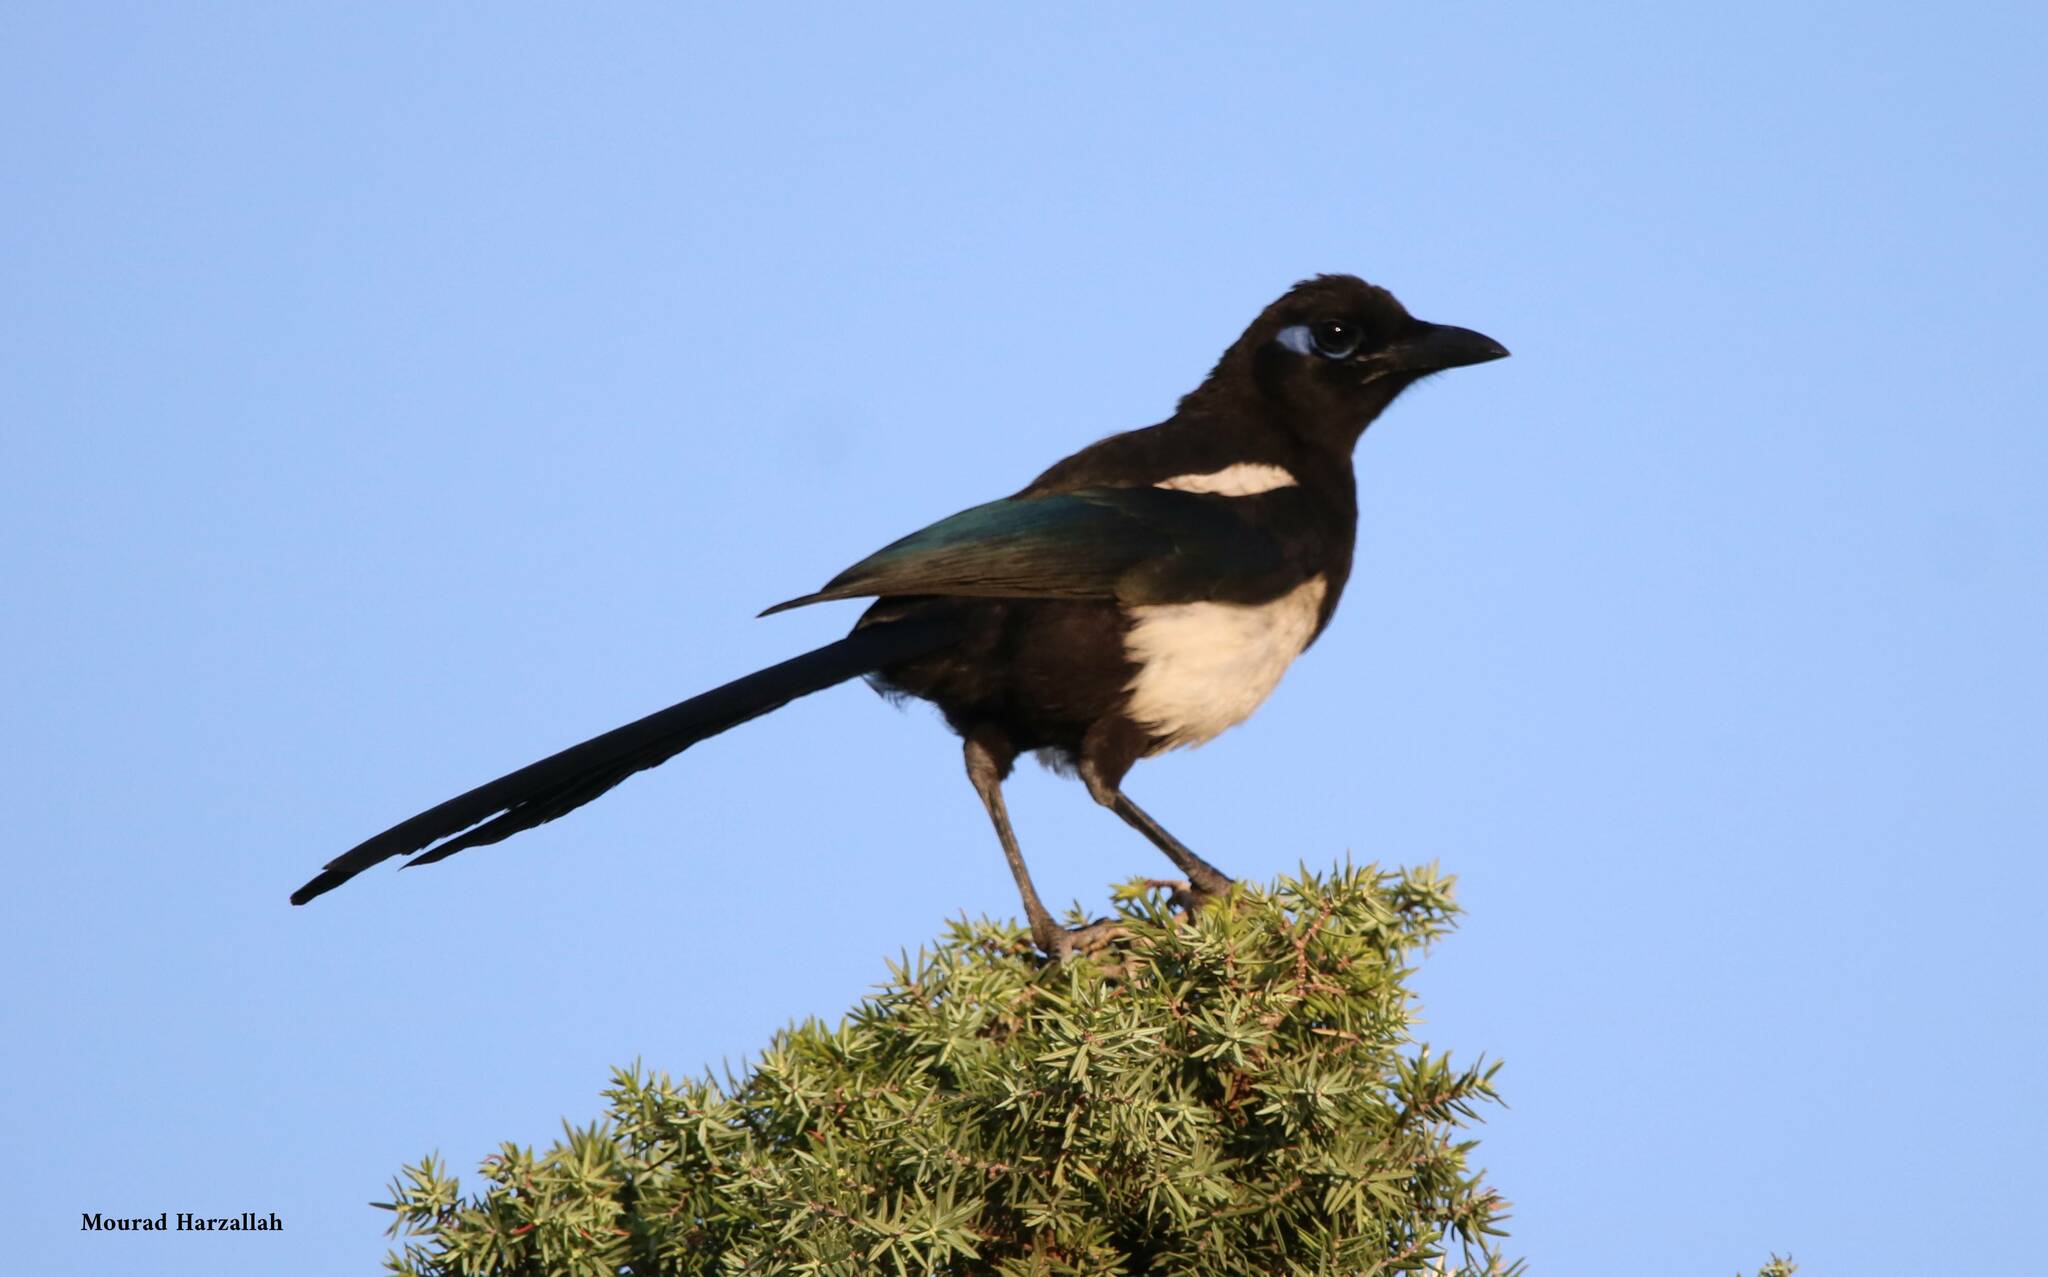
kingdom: Animalia
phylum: Chordata
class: Aves
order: Passeriformes
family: Corvidae
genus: Pica
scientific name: Pica mauritanica
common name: Maghreb magpie
